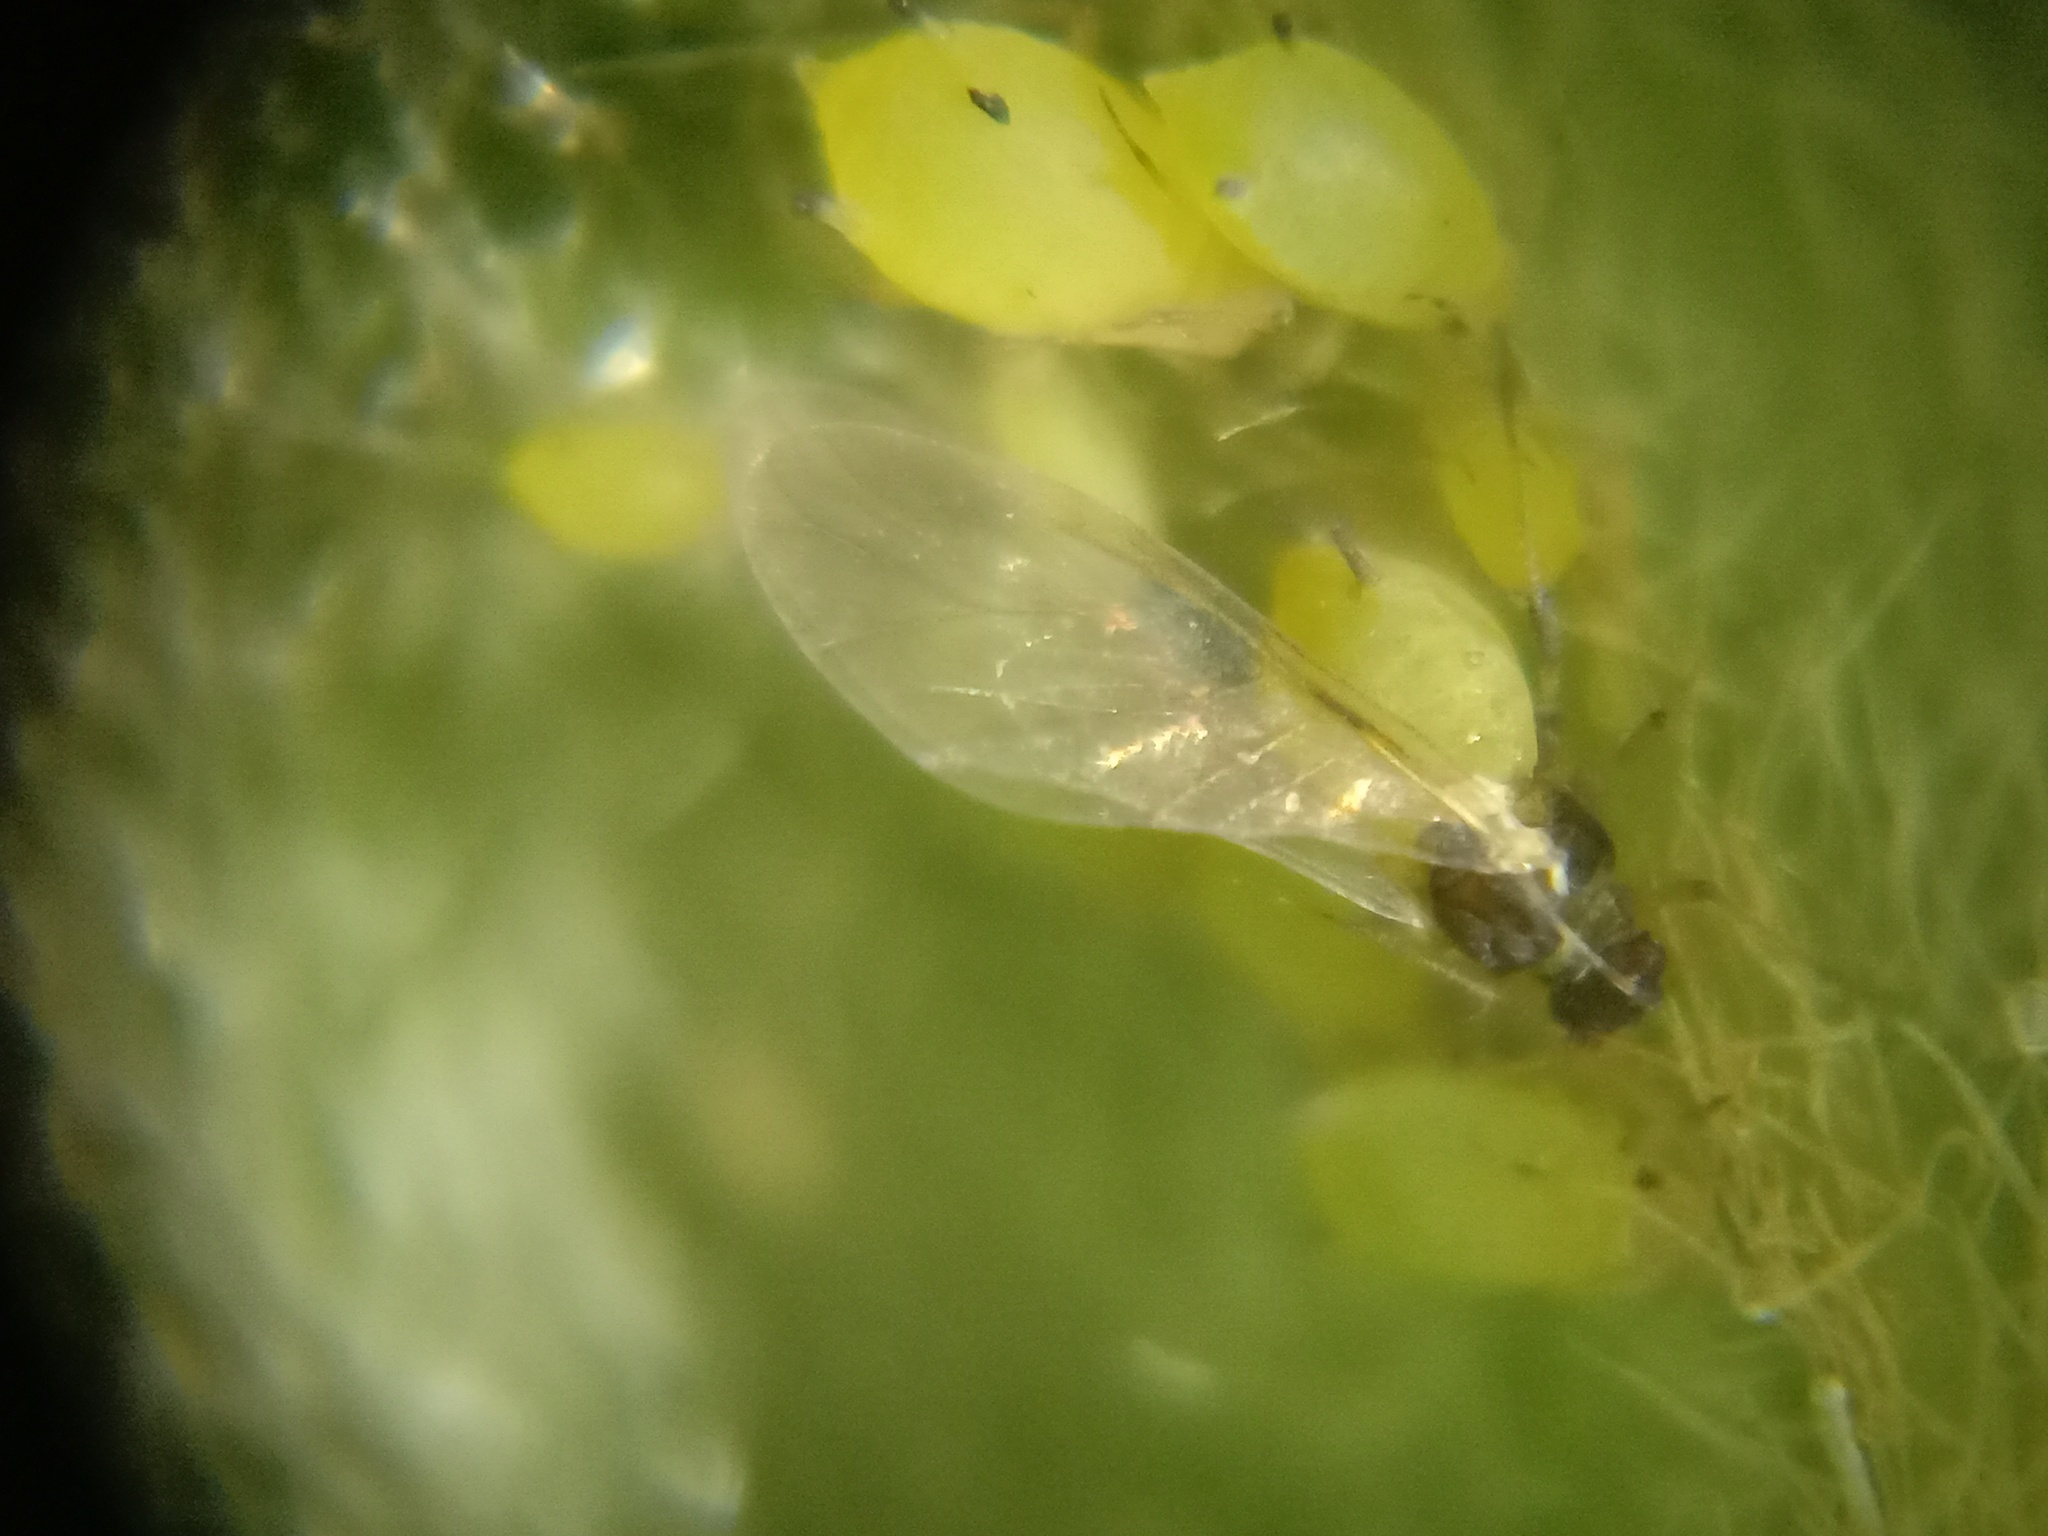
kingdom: Animalia
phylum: Arthropoda
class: Insecta
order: Hemiptera
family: Aphididae
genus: Aphis
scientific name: Aphis spiraecola
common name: Spirea aphid
